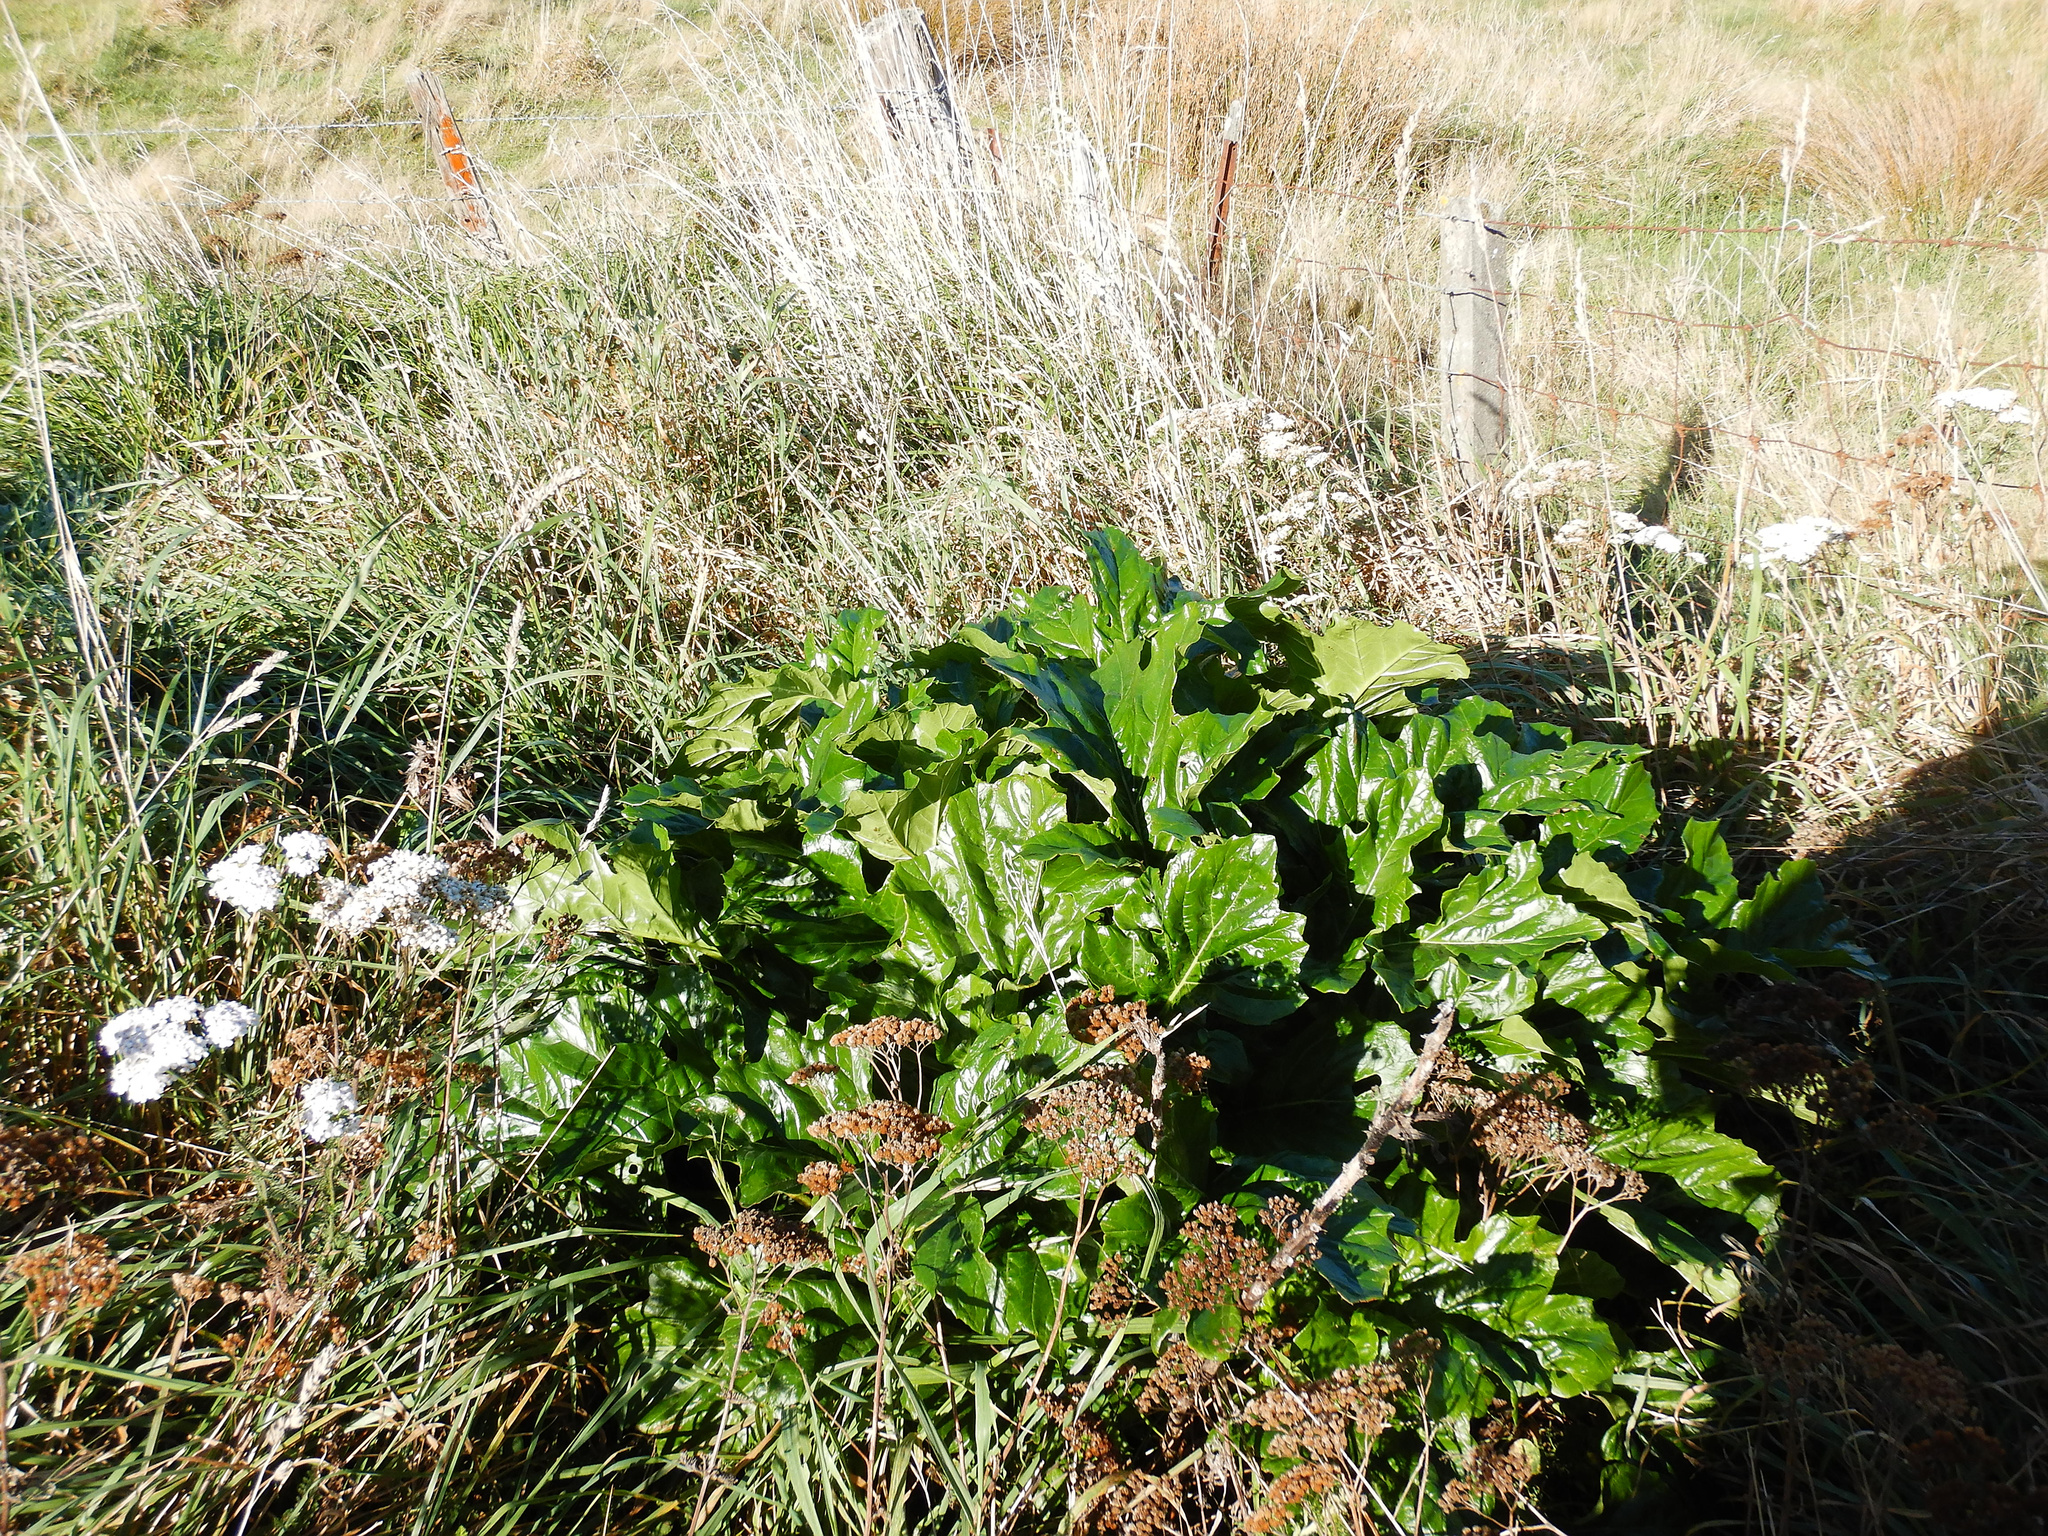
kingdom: Plantae
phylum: Tracheophyta
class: Magnoliopsida
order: Lamiales
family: Acanthaceae
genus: Acanthus
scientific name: Acanthus mollis
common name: Bear's-breech
